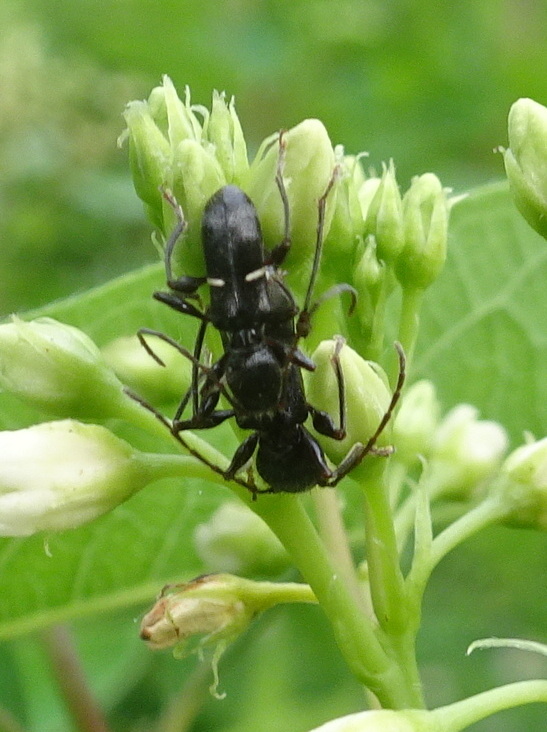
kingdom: Animalia
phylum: Arthropoda
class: Insecta
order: Coleoptera
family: Cerambycidae
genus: Euderces
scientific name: Euderces picipes
